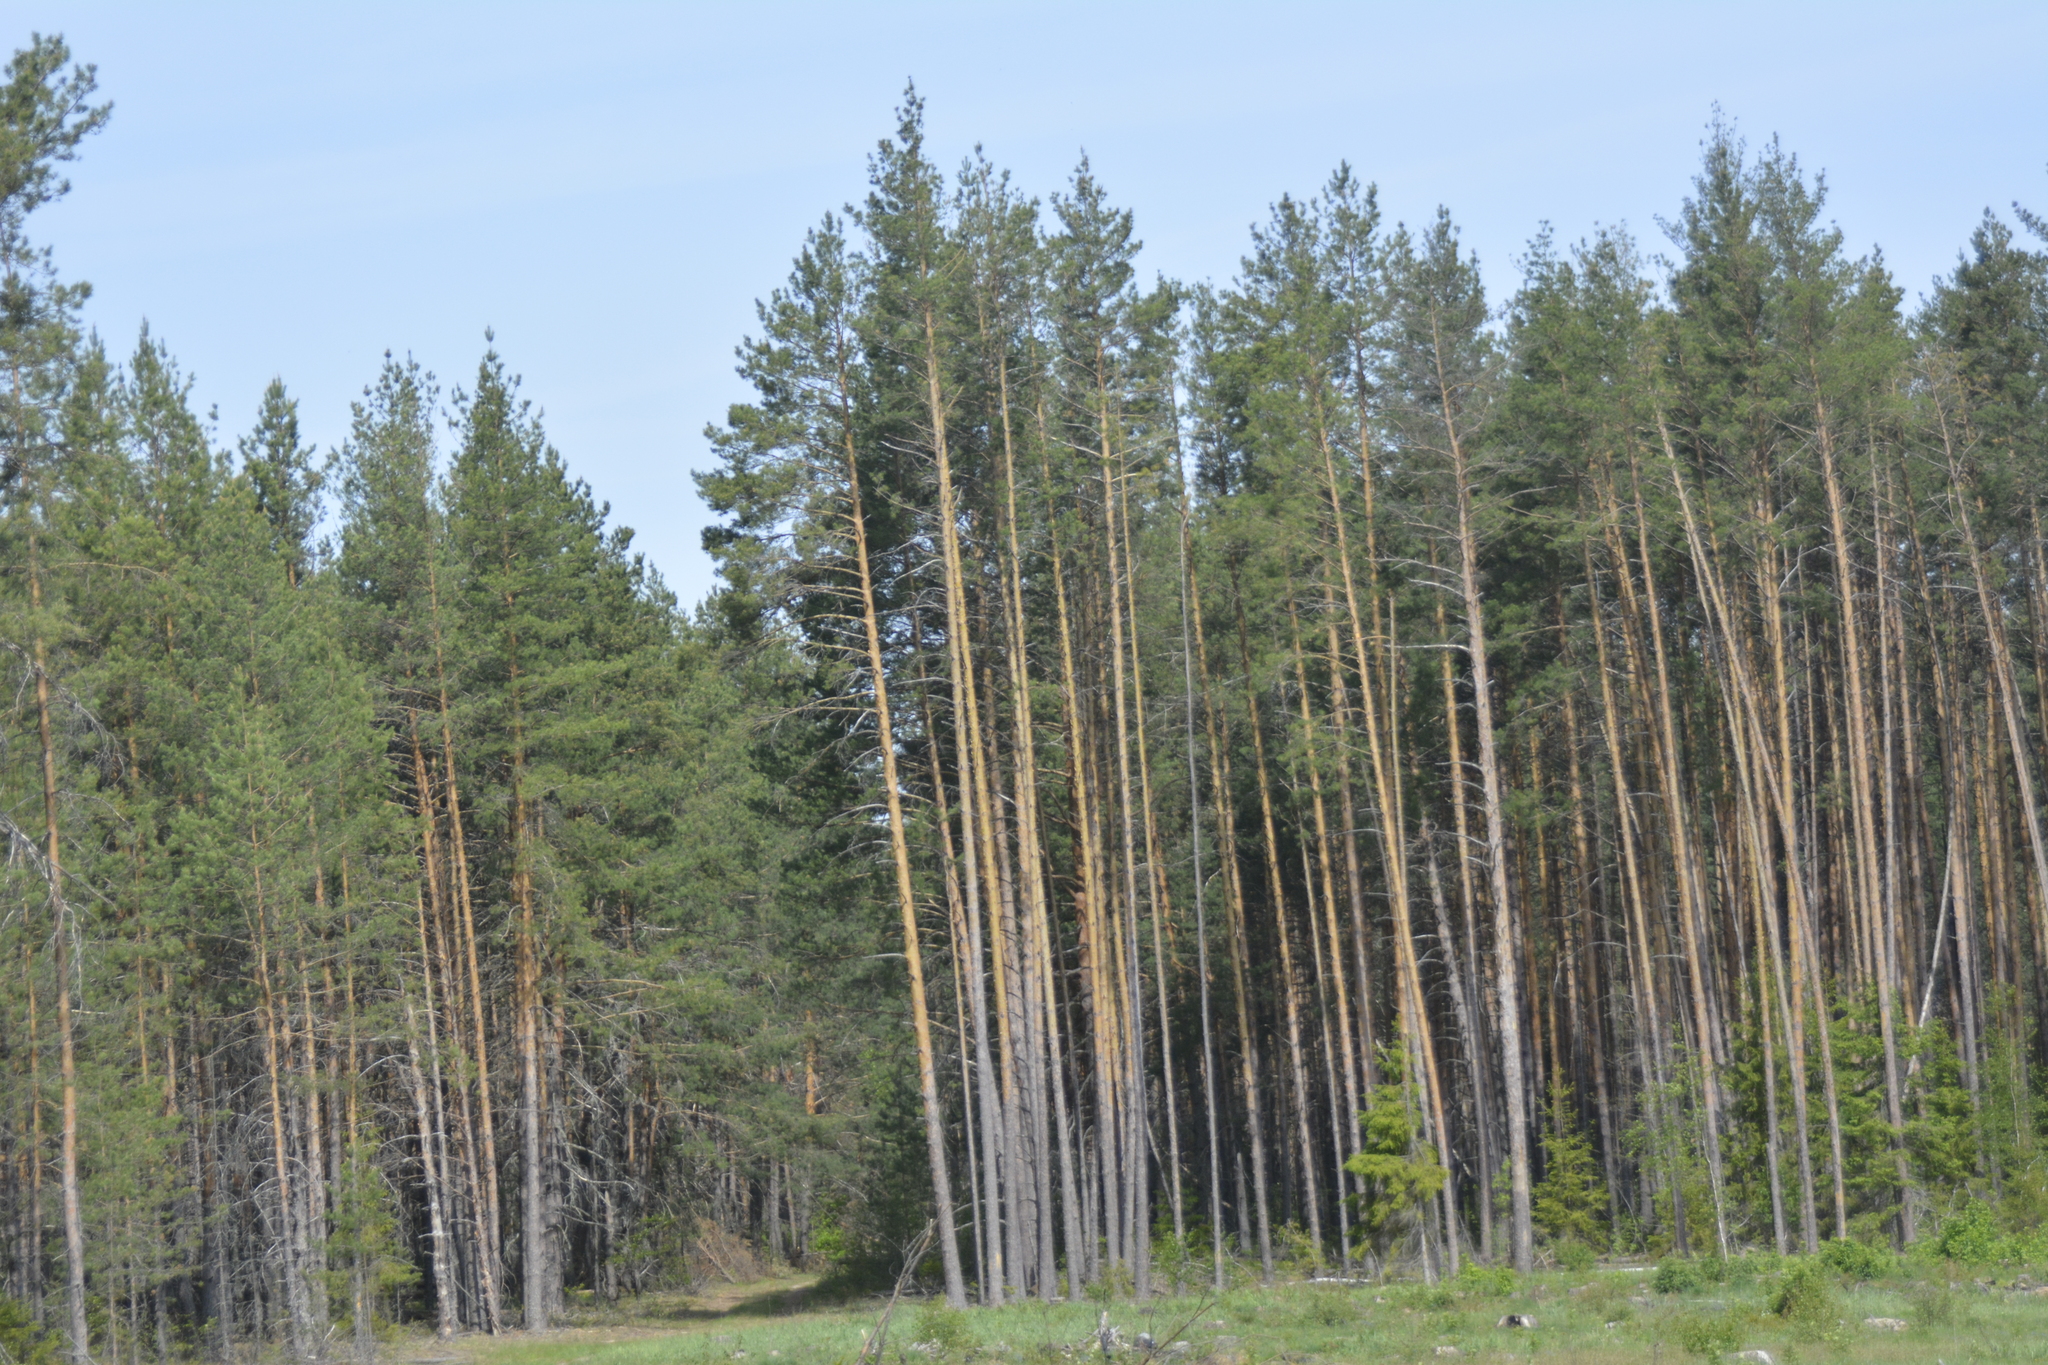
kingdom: Plantae
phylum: Tracheophyta
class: Pinopsida
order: Pinales
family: Pinaceae
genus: Pinus
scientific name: Pinus sylvestris
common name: Scots pine
